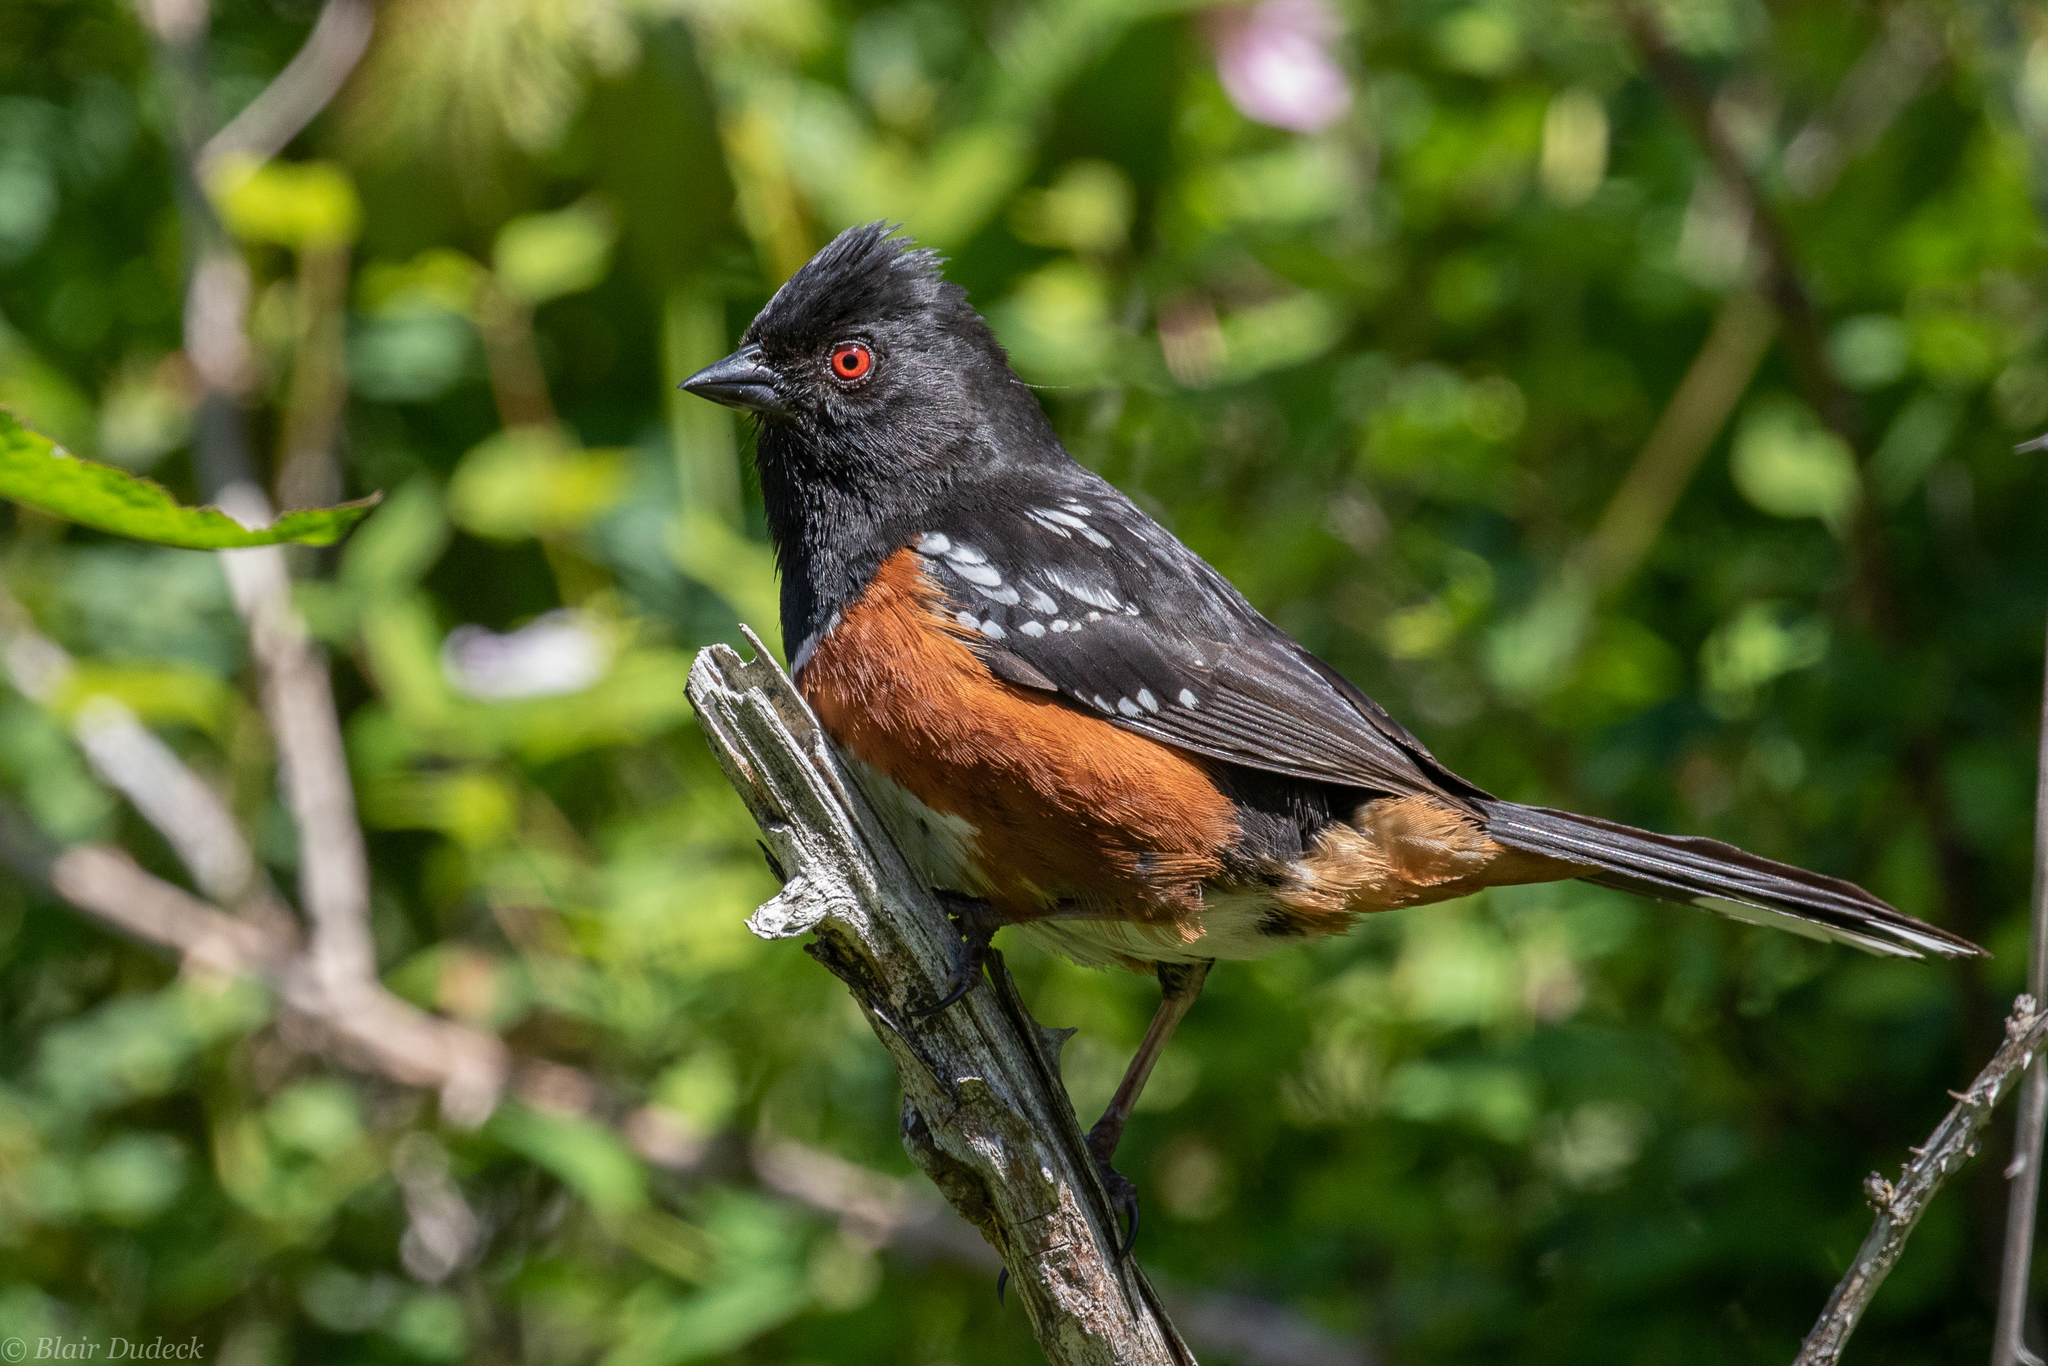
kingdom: Animalia
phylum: Chordata
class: Aves
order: Passeriformes
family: Passerellidae
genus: Pipilo
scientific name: Pipilo maculatus
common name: Spotted towhee
